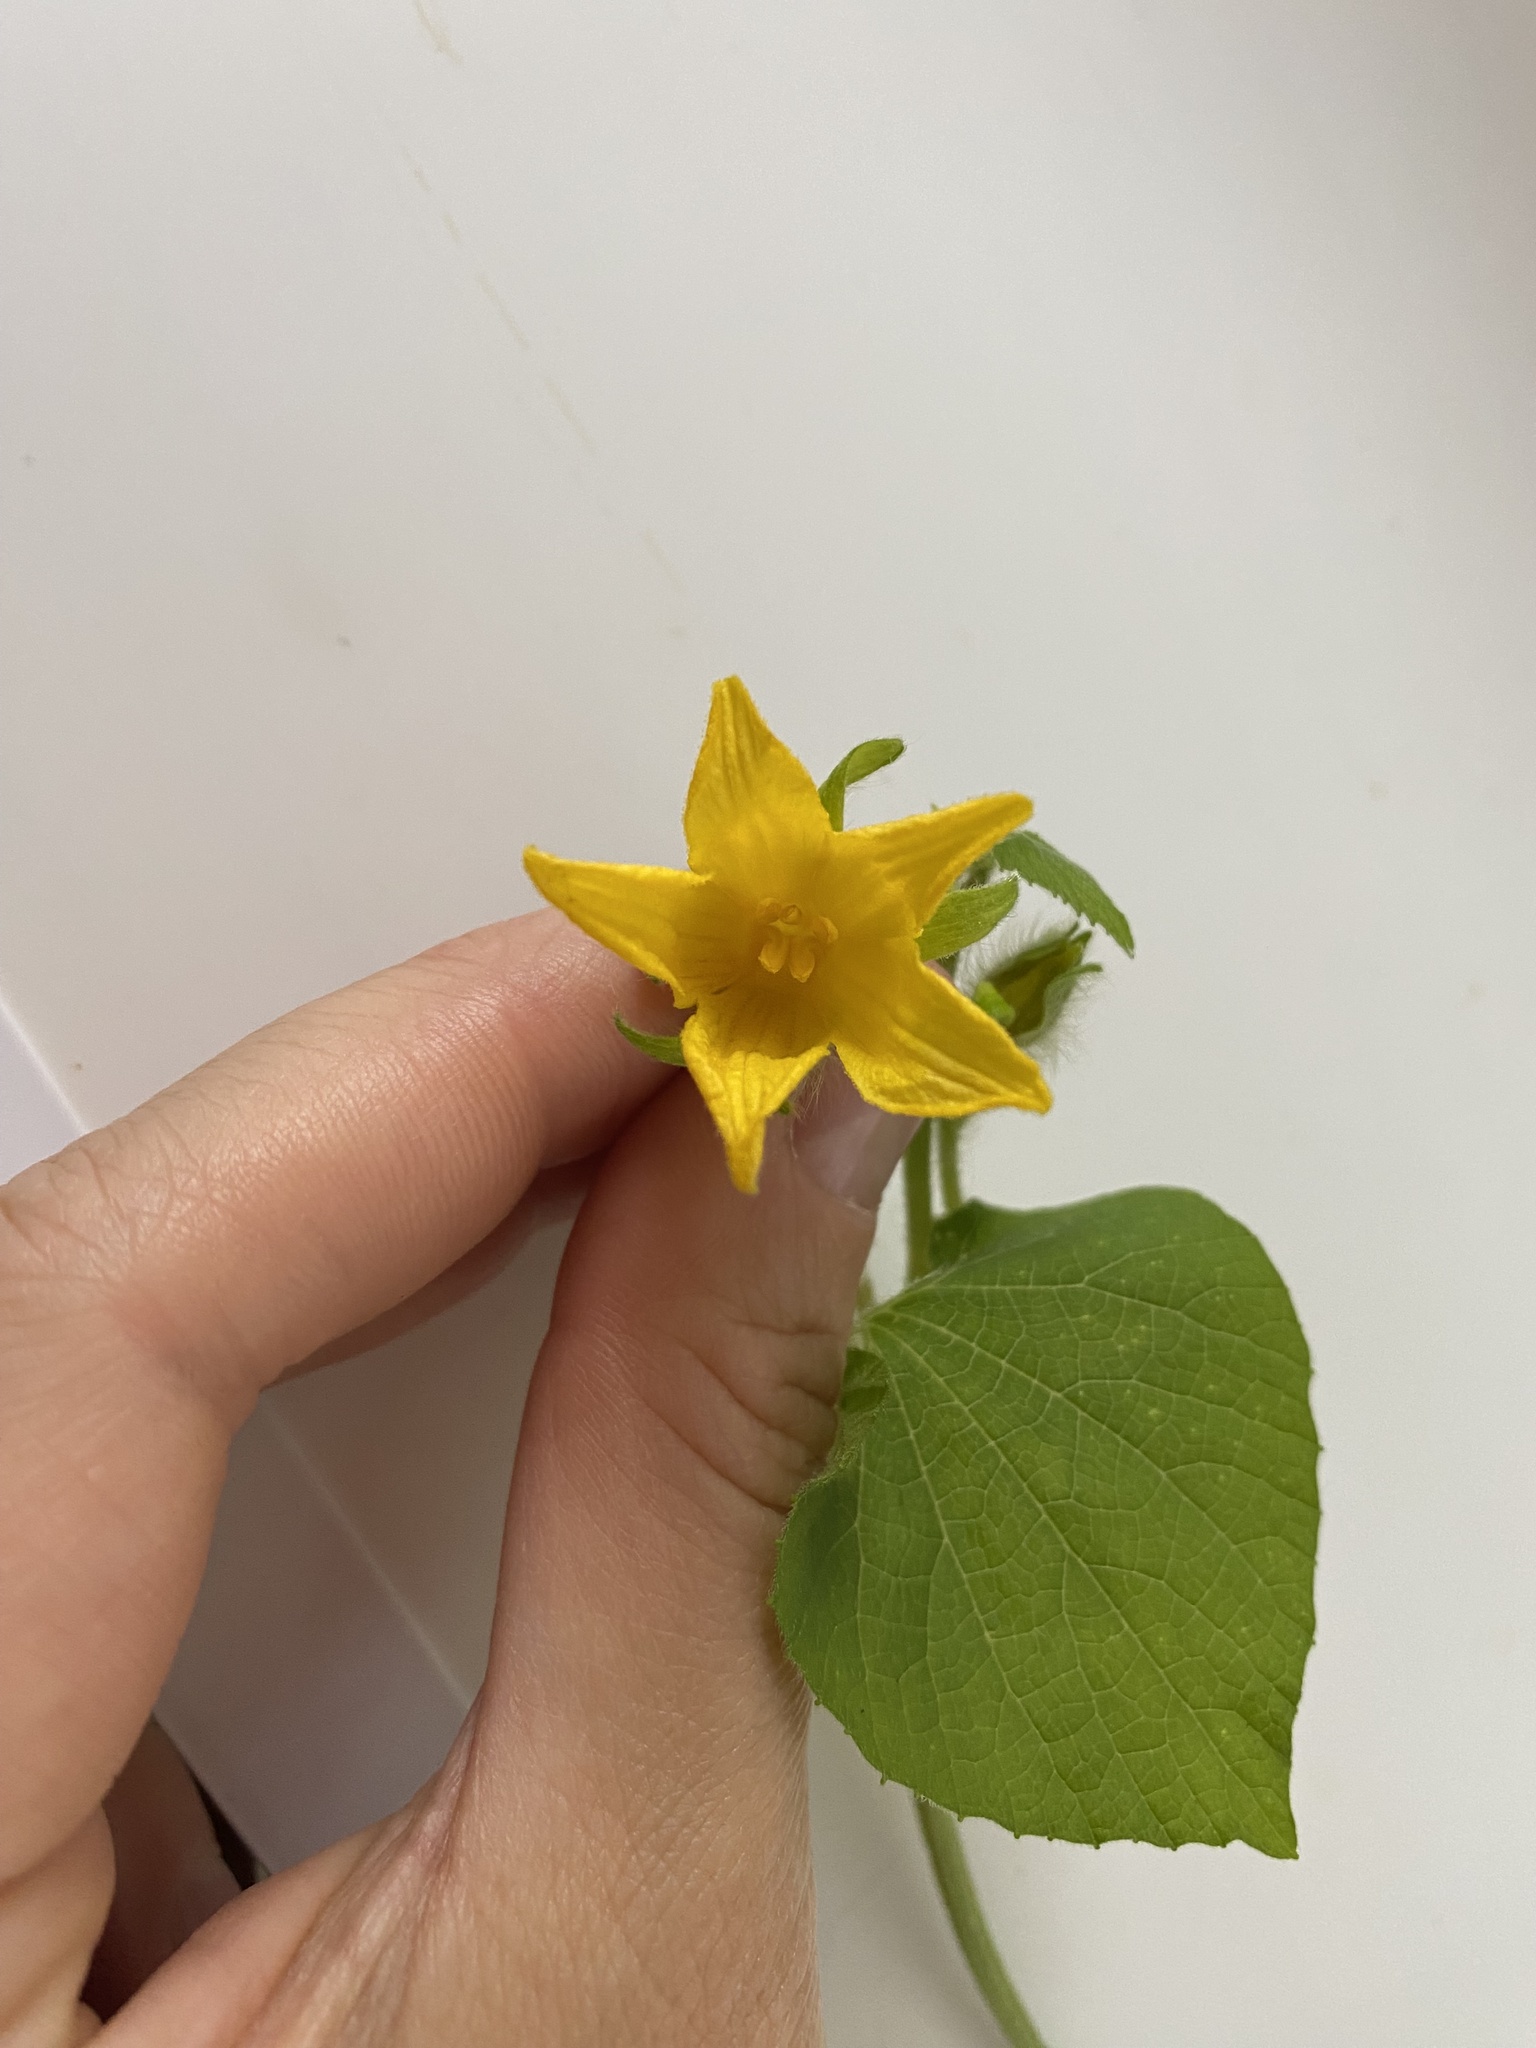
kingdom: Plantae
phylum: Tracheophyta
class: Magnoliopsida
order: Cucurbitales
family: Cucurbitaceae
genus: Thladiantha
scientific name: Thladiantha dubia
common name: Manchu tubergourd
